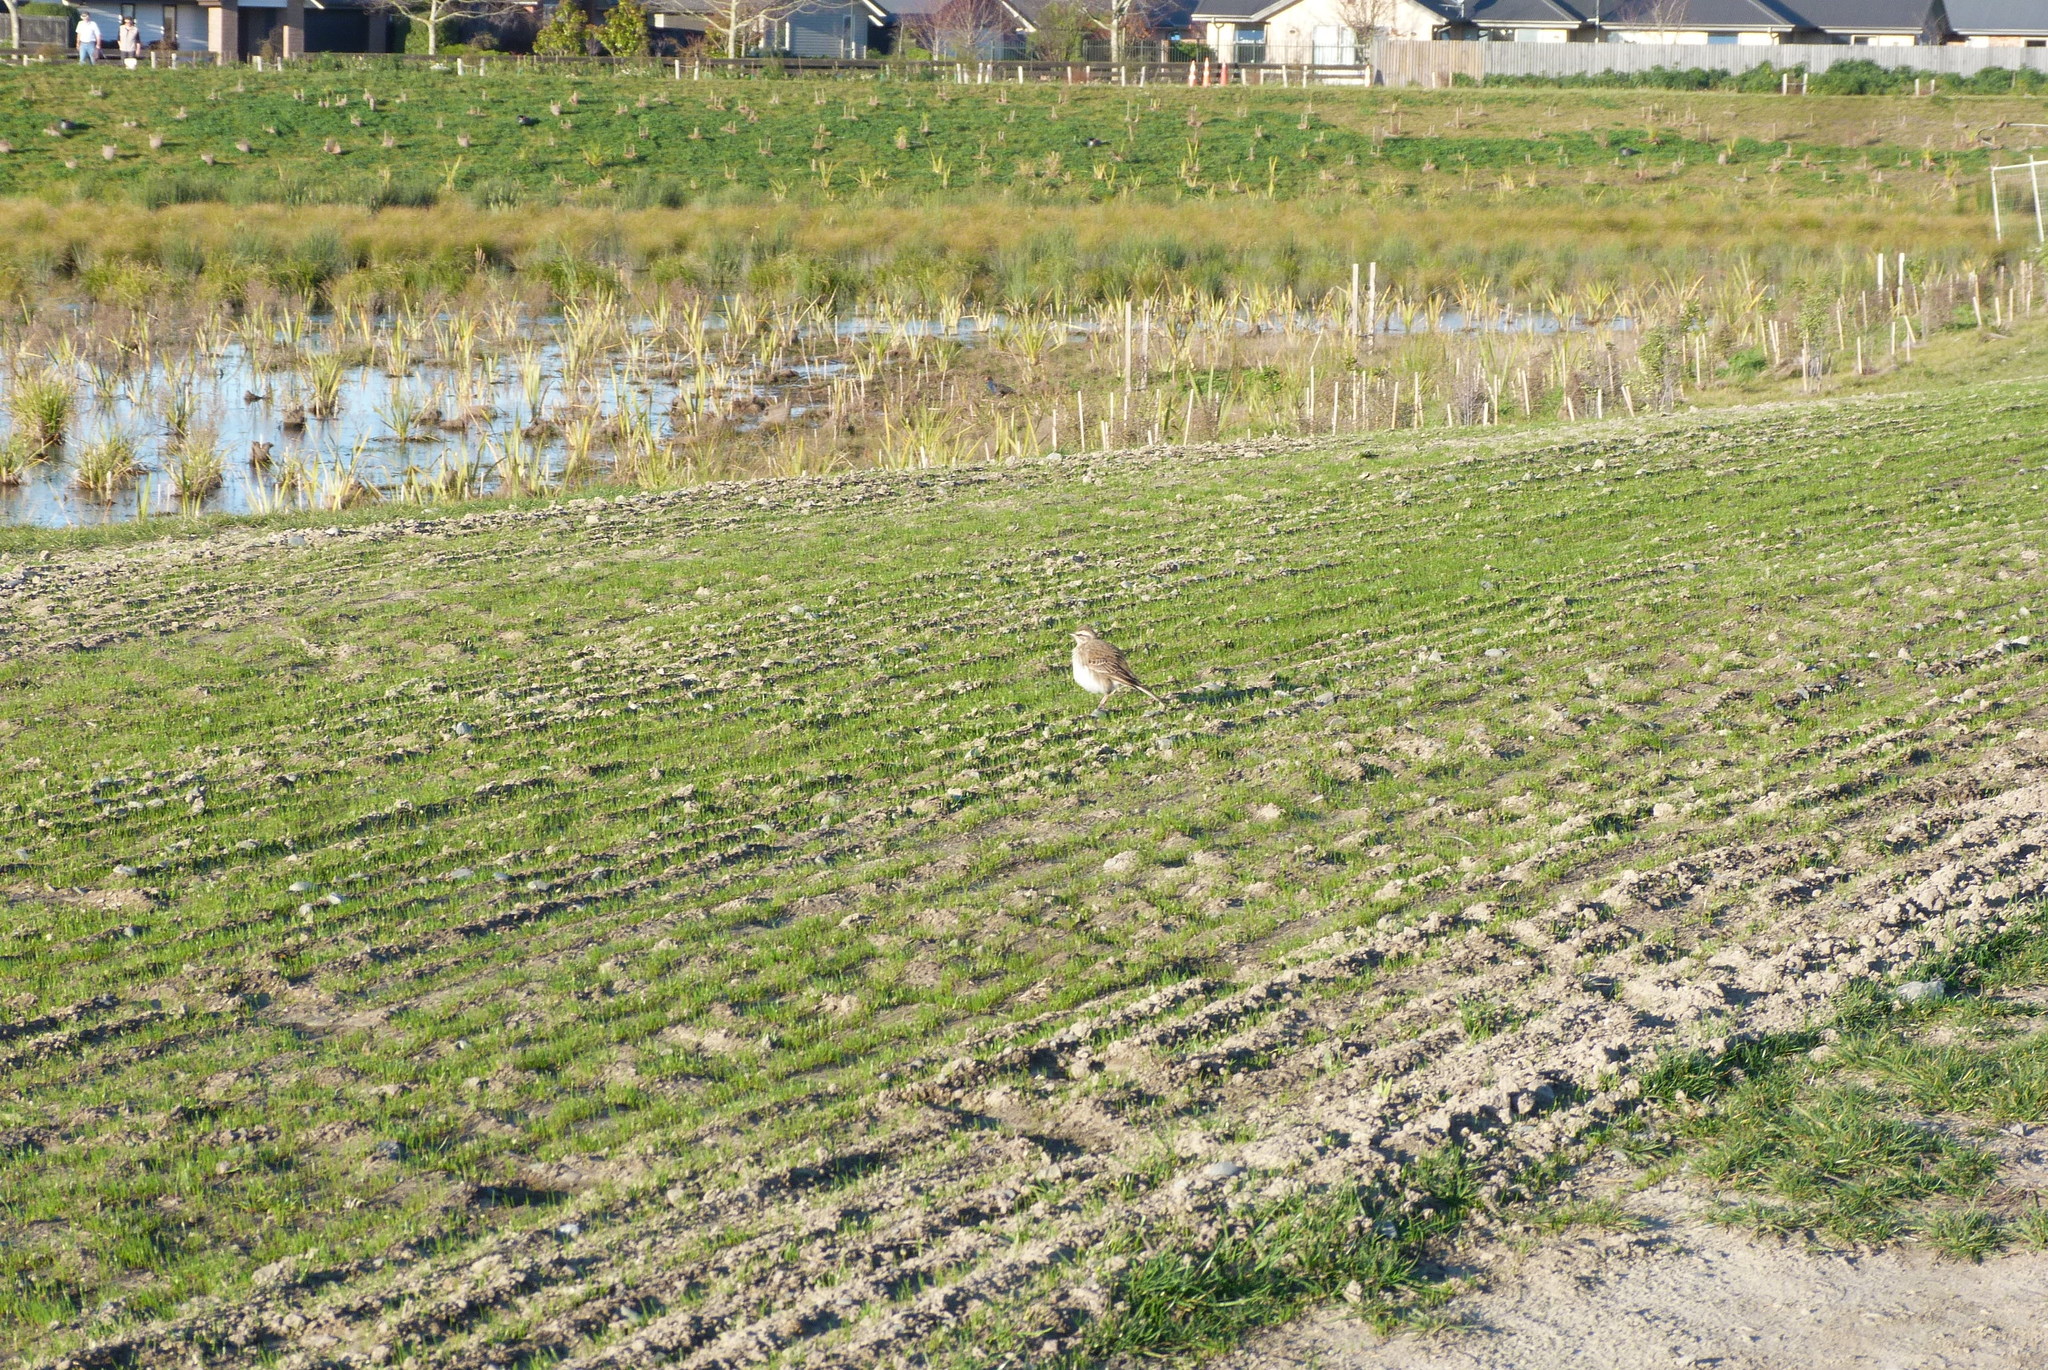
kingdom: Animalia
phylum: Chordata
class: Aves
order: Passeriformes
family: Alaudidae
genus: Alauda
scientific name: Alauda arvensis
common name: Eurasian skylark
